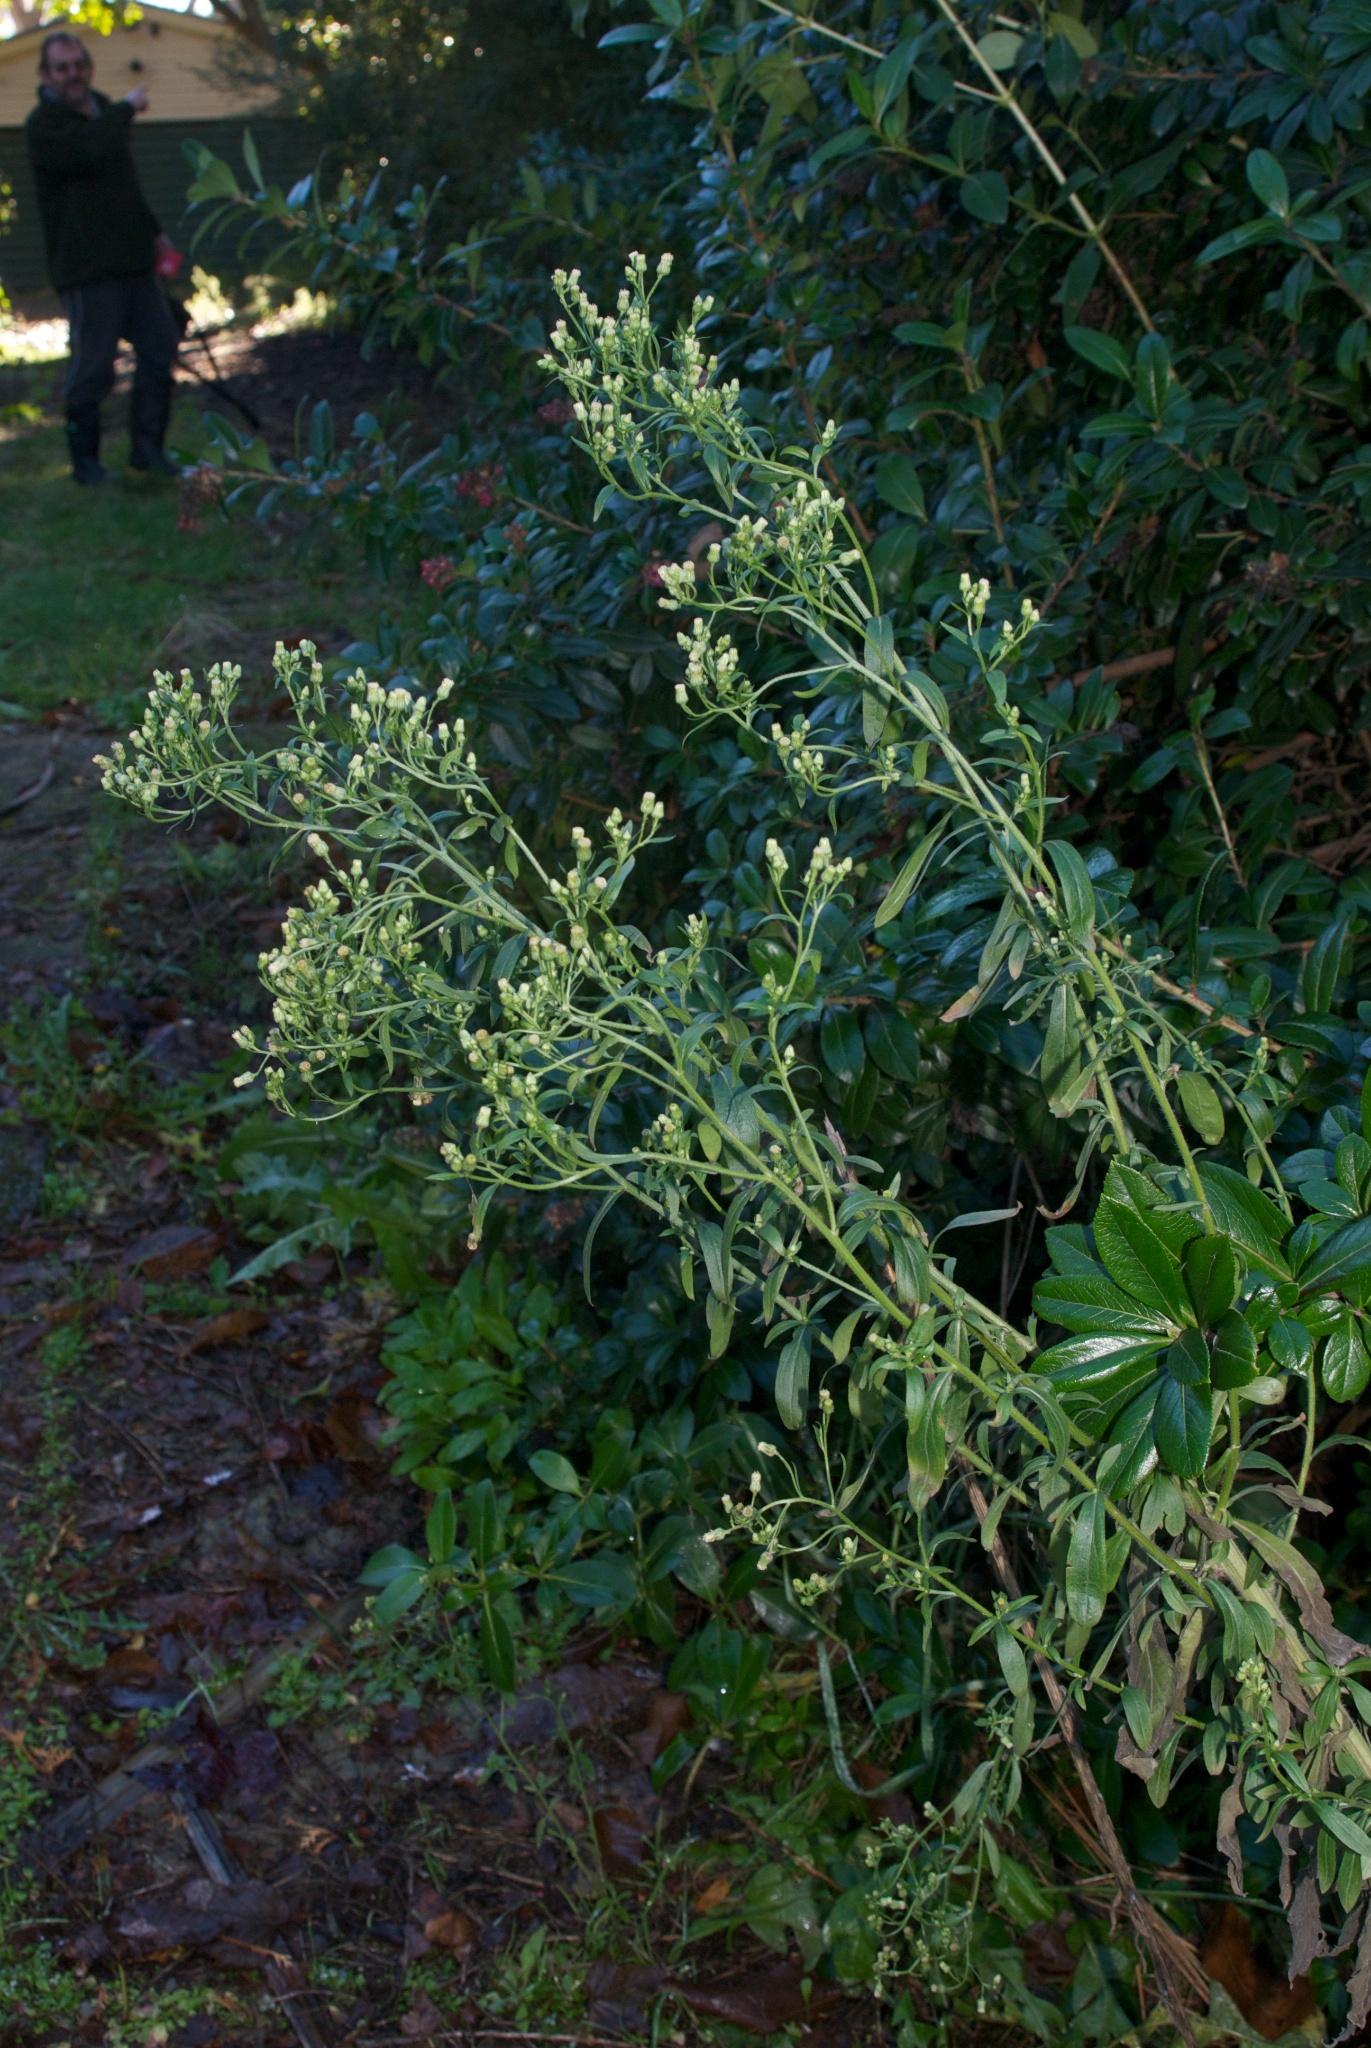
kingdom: Plantae
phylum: Tracheophyta
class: Magnoliopsida
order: Asterales
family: Asteraceae
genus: Erigeron
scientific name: Erigeron bonariensis
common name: Argentine fleabane
